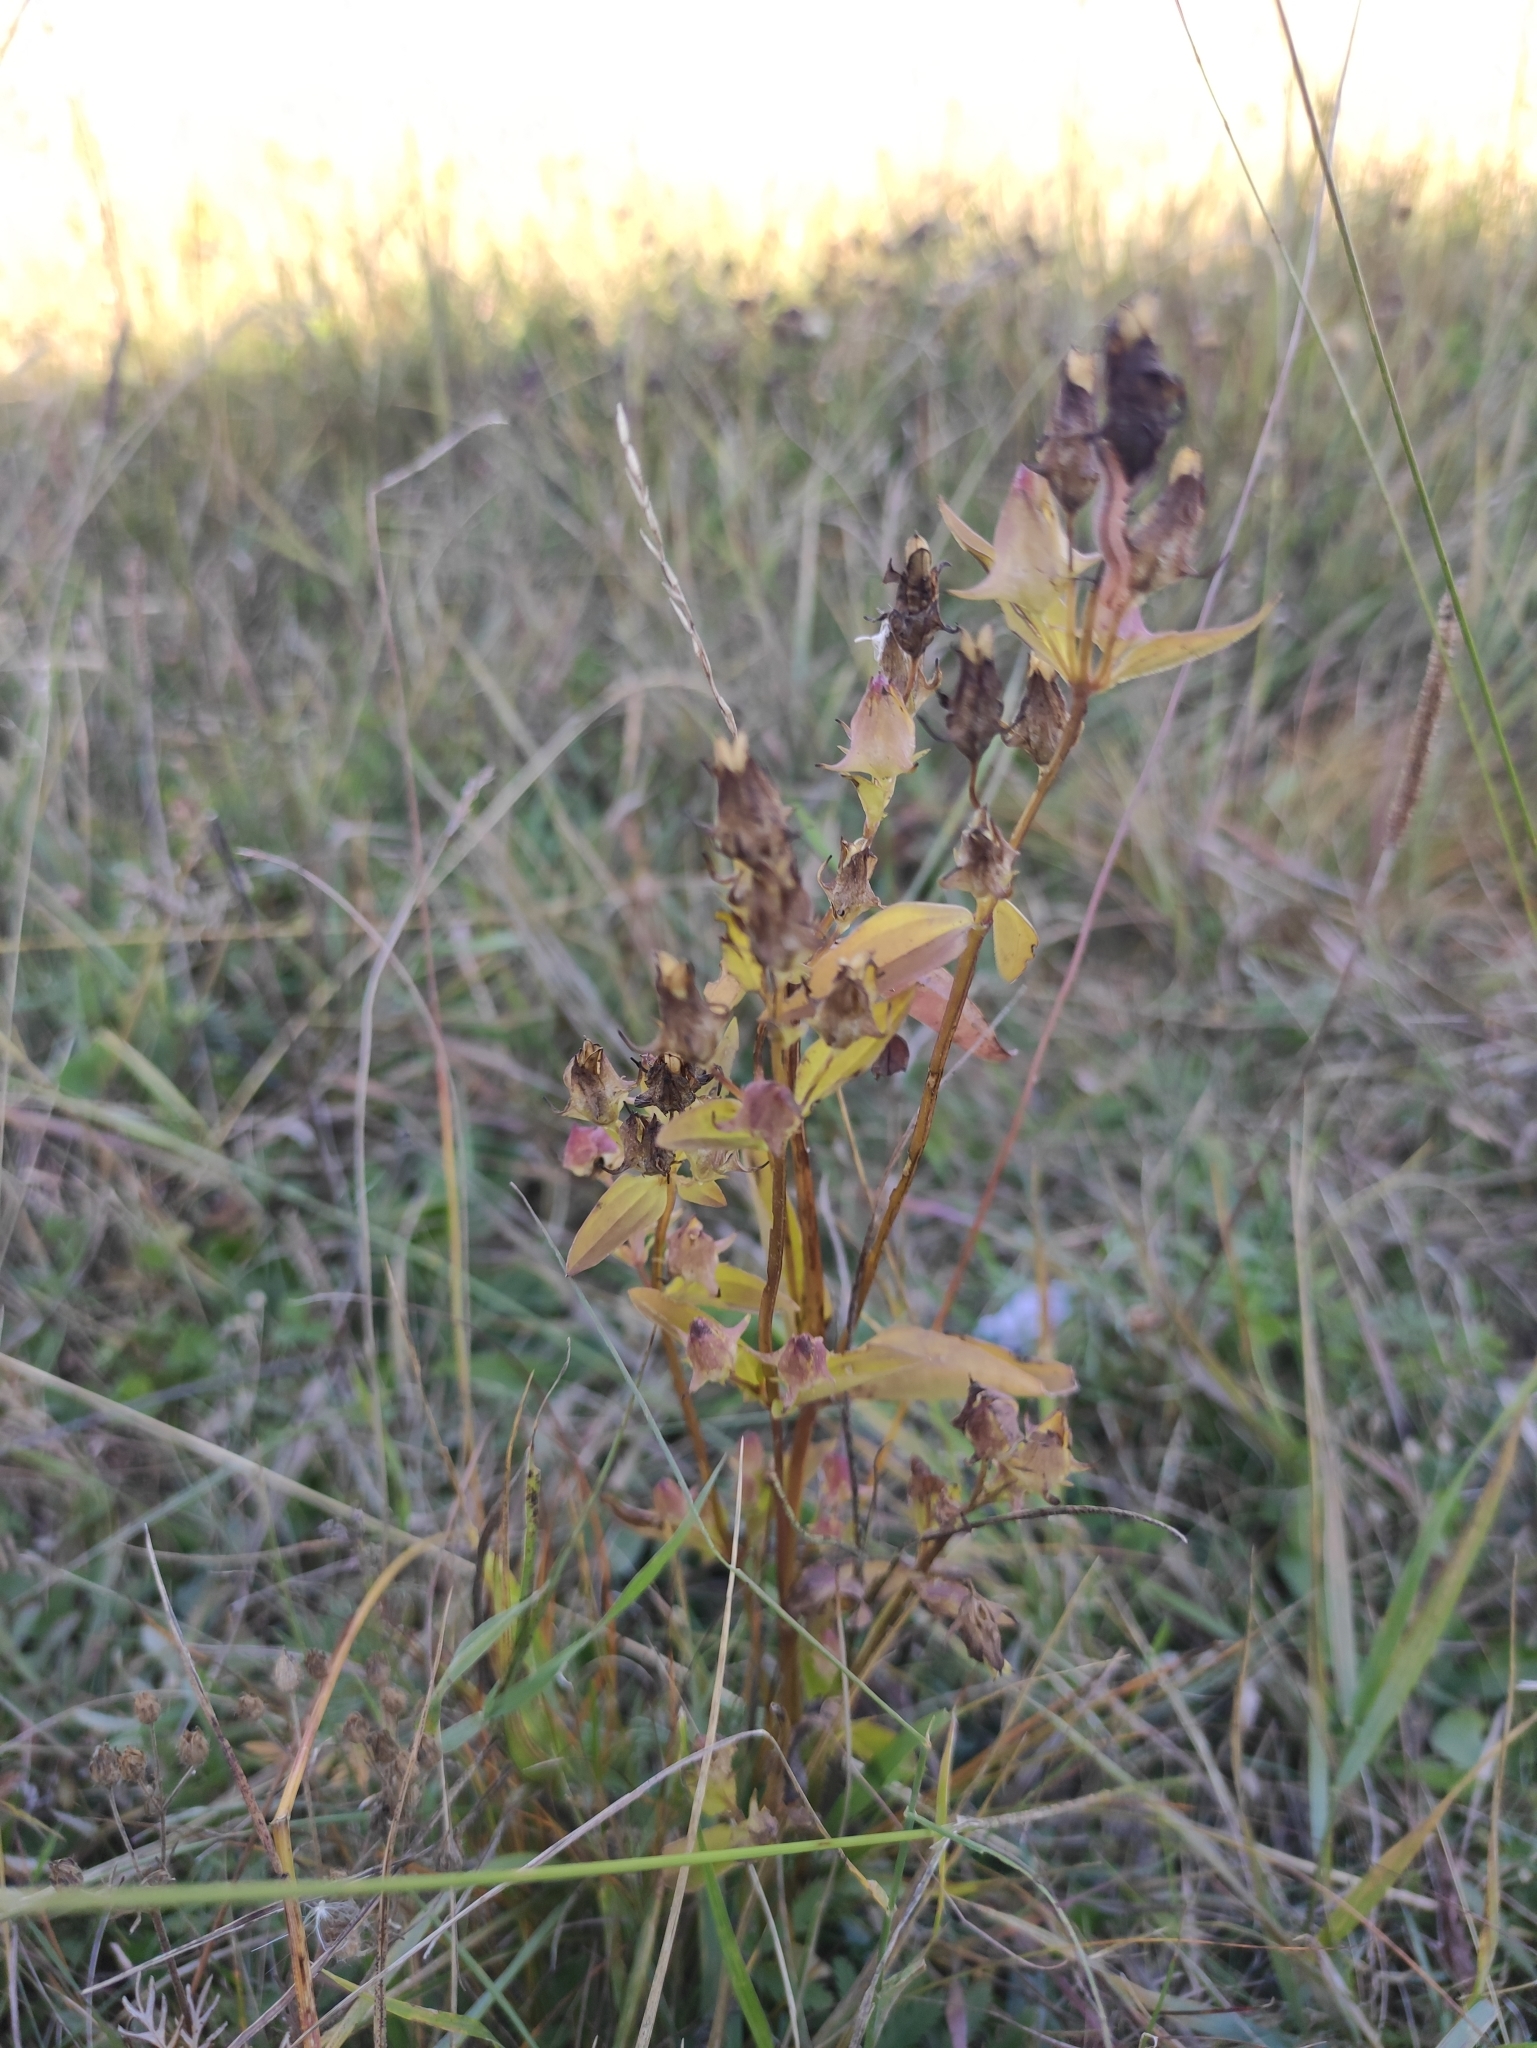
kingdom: Plantae
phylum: Tracheophyta
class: Magnoliopsida
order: Gentianales
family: Gentianaceae
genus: Halenia
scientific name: Halenia corniculata
